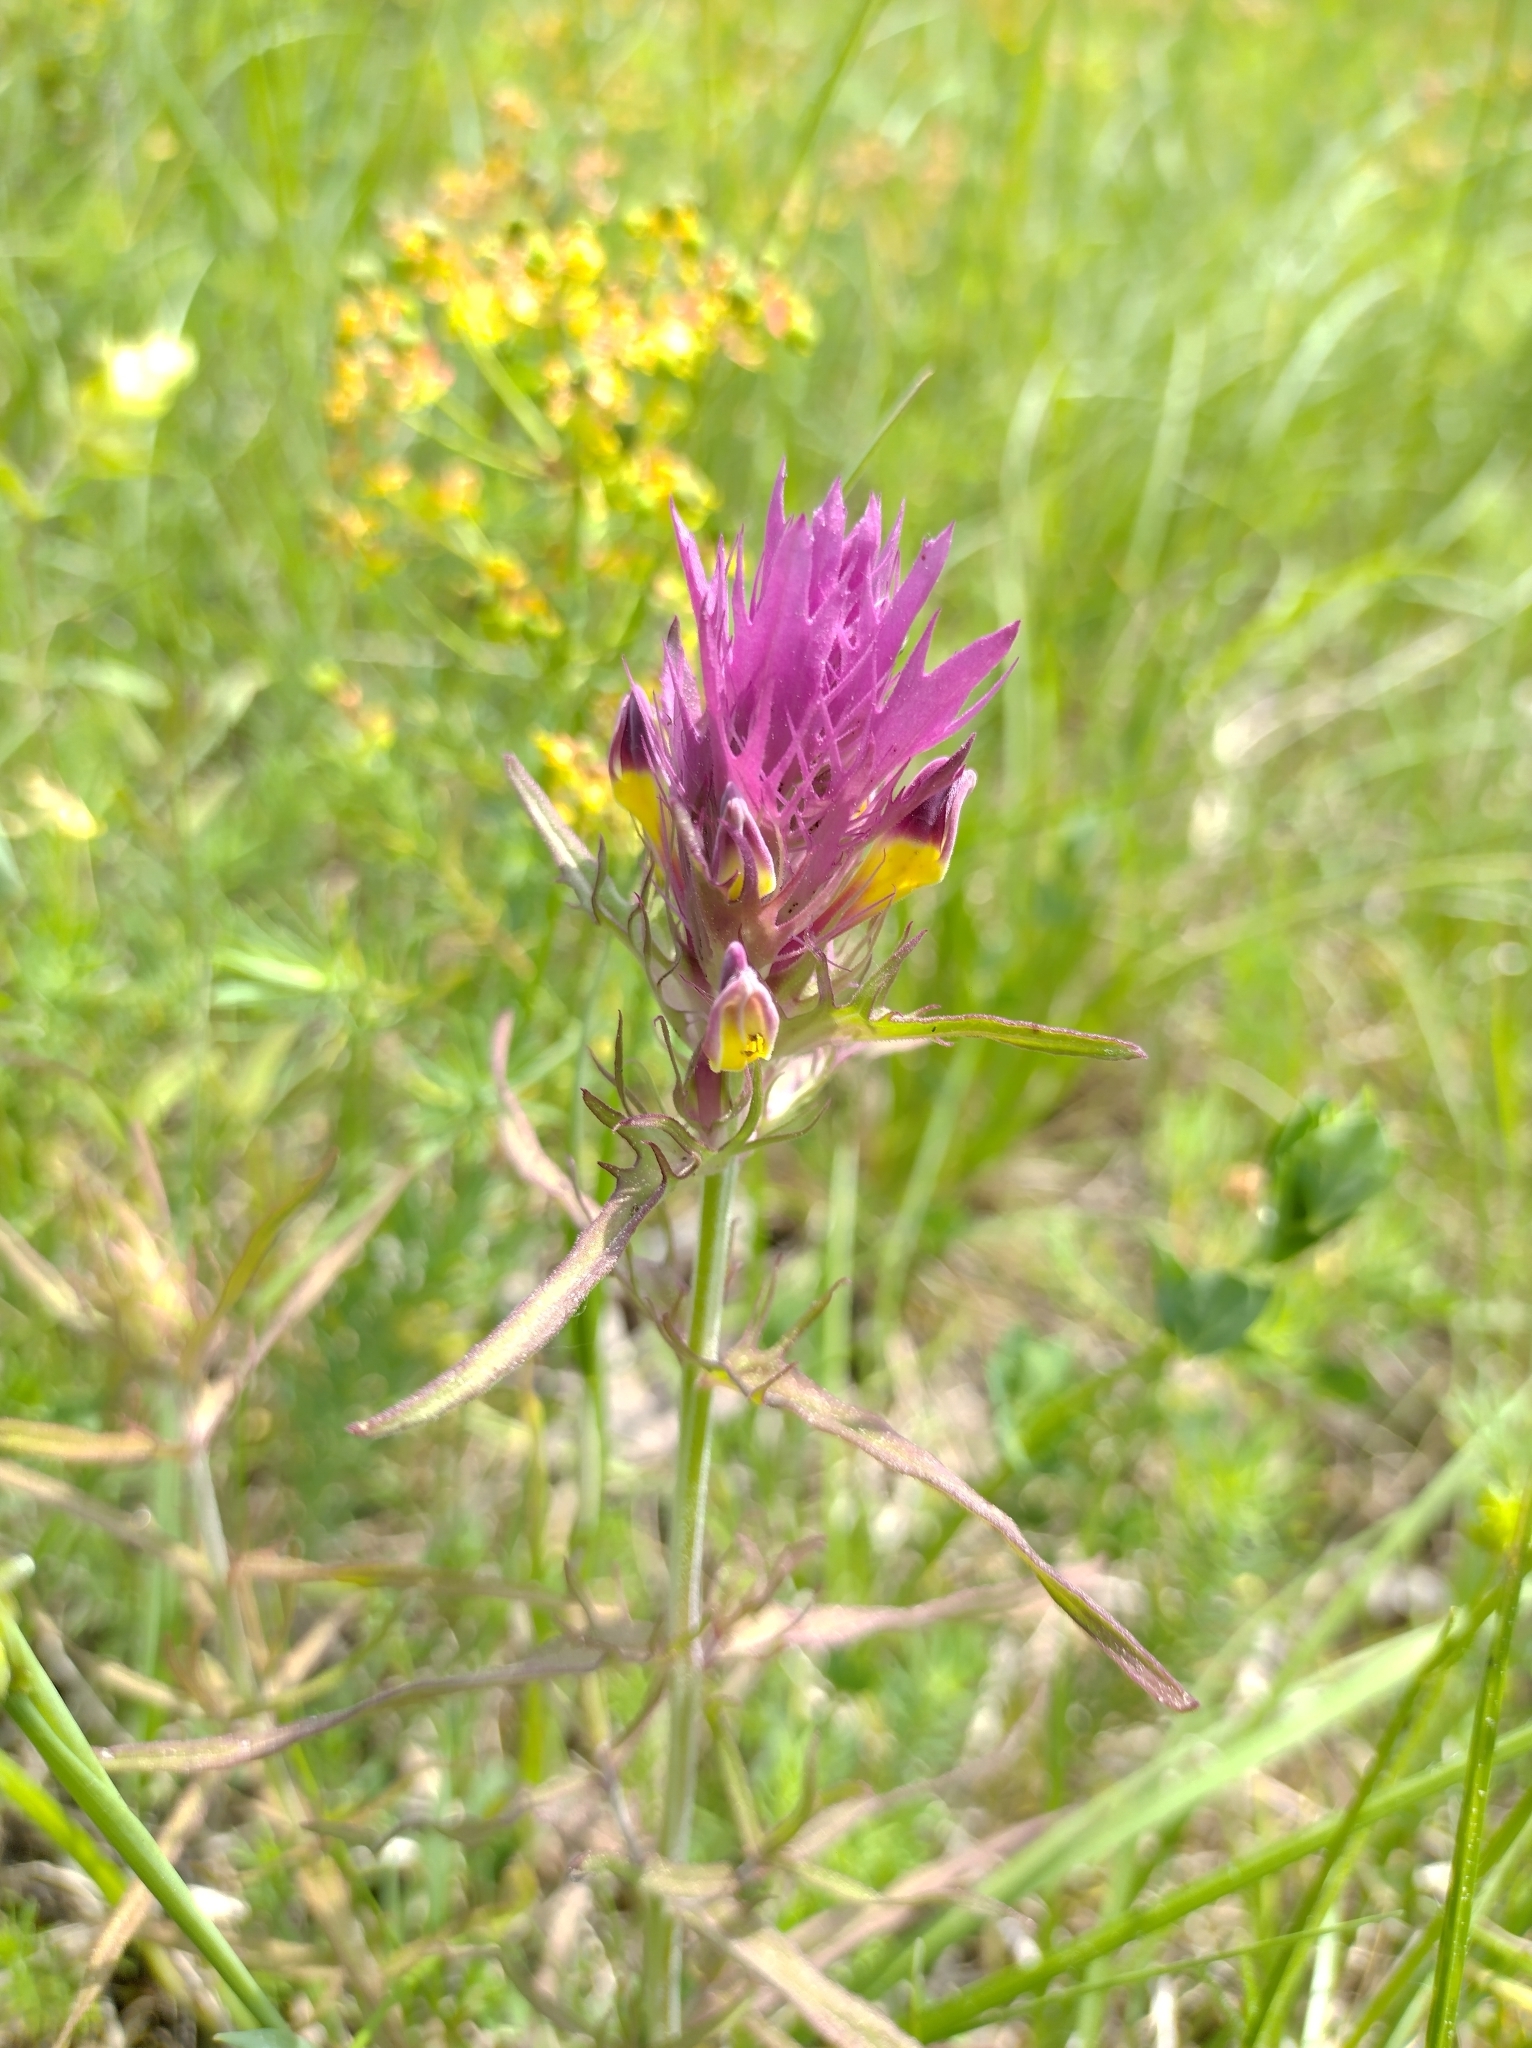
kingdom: Plantae
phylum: Tracheophyta
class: Magnoliopsida
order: Lamiales
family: Orobanchaceae
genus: Melampyrum
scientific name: Melampyrum arvense
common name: Field cow-wheat
